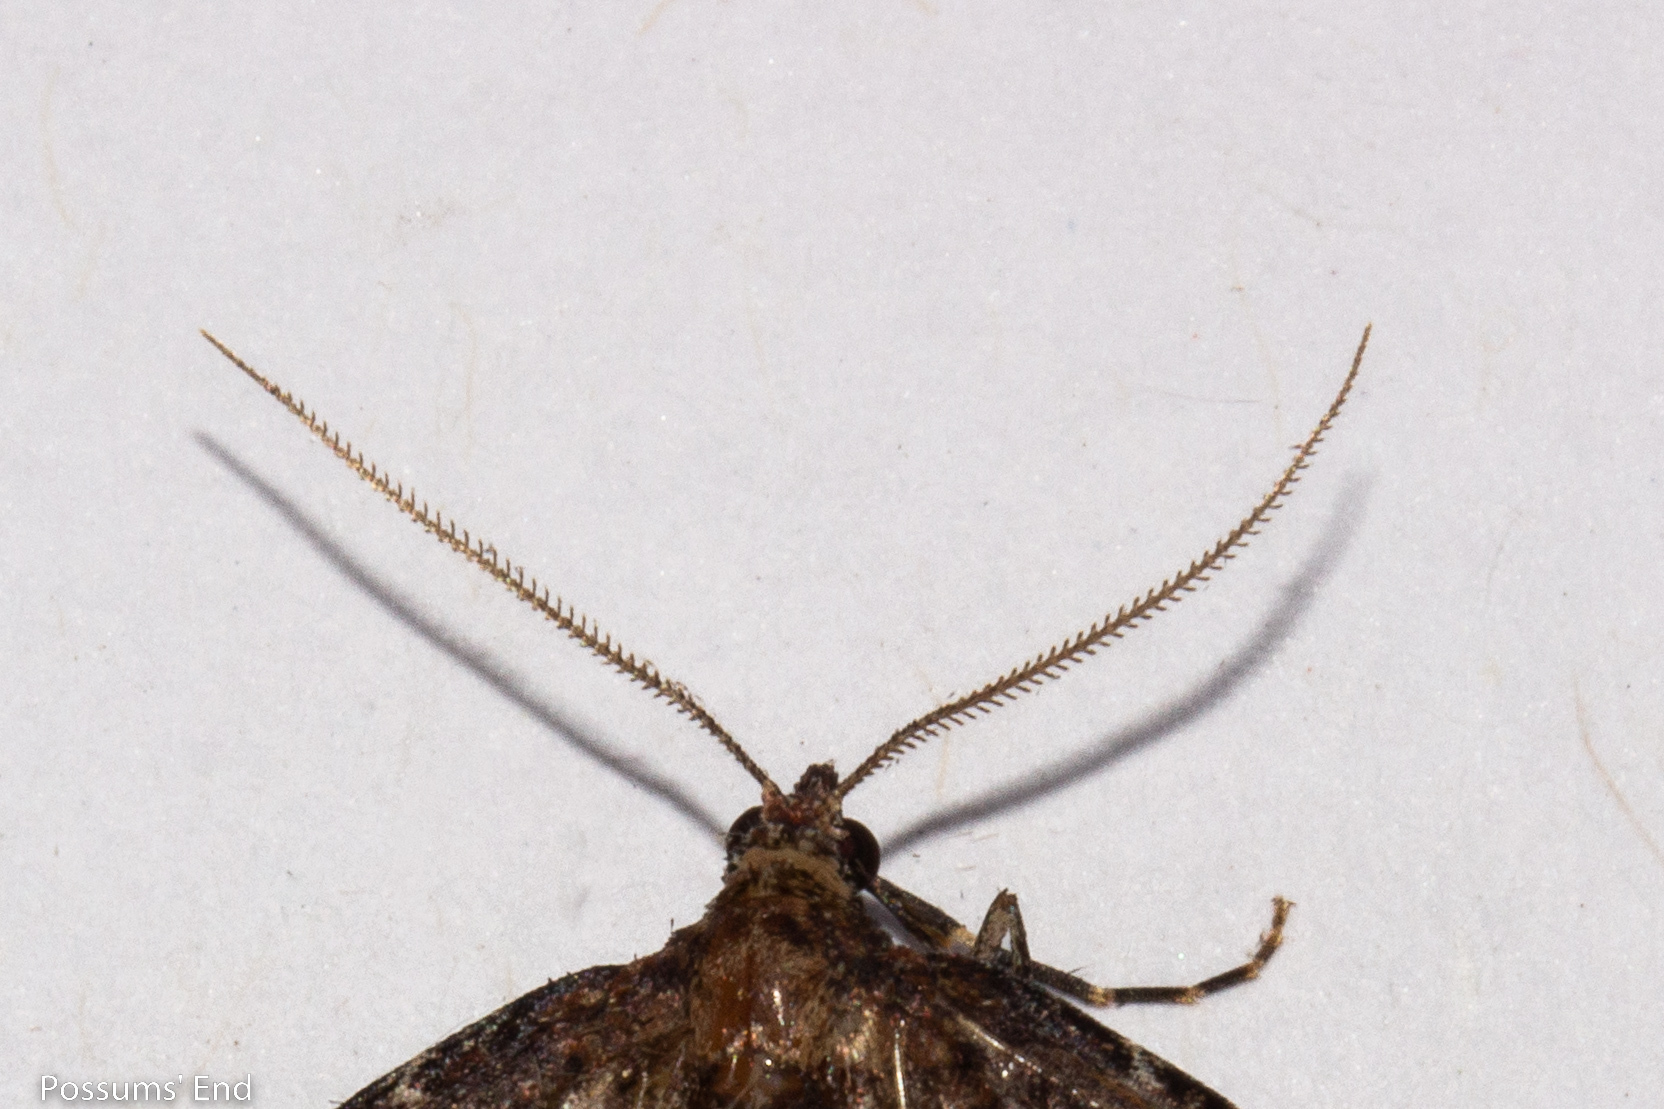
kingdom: Animalia
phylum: Arthropoda
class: Insecta
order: Lepidoptera
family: Geometridae
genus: Austrocidaria
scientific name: Austrocidaria cedrinodes
